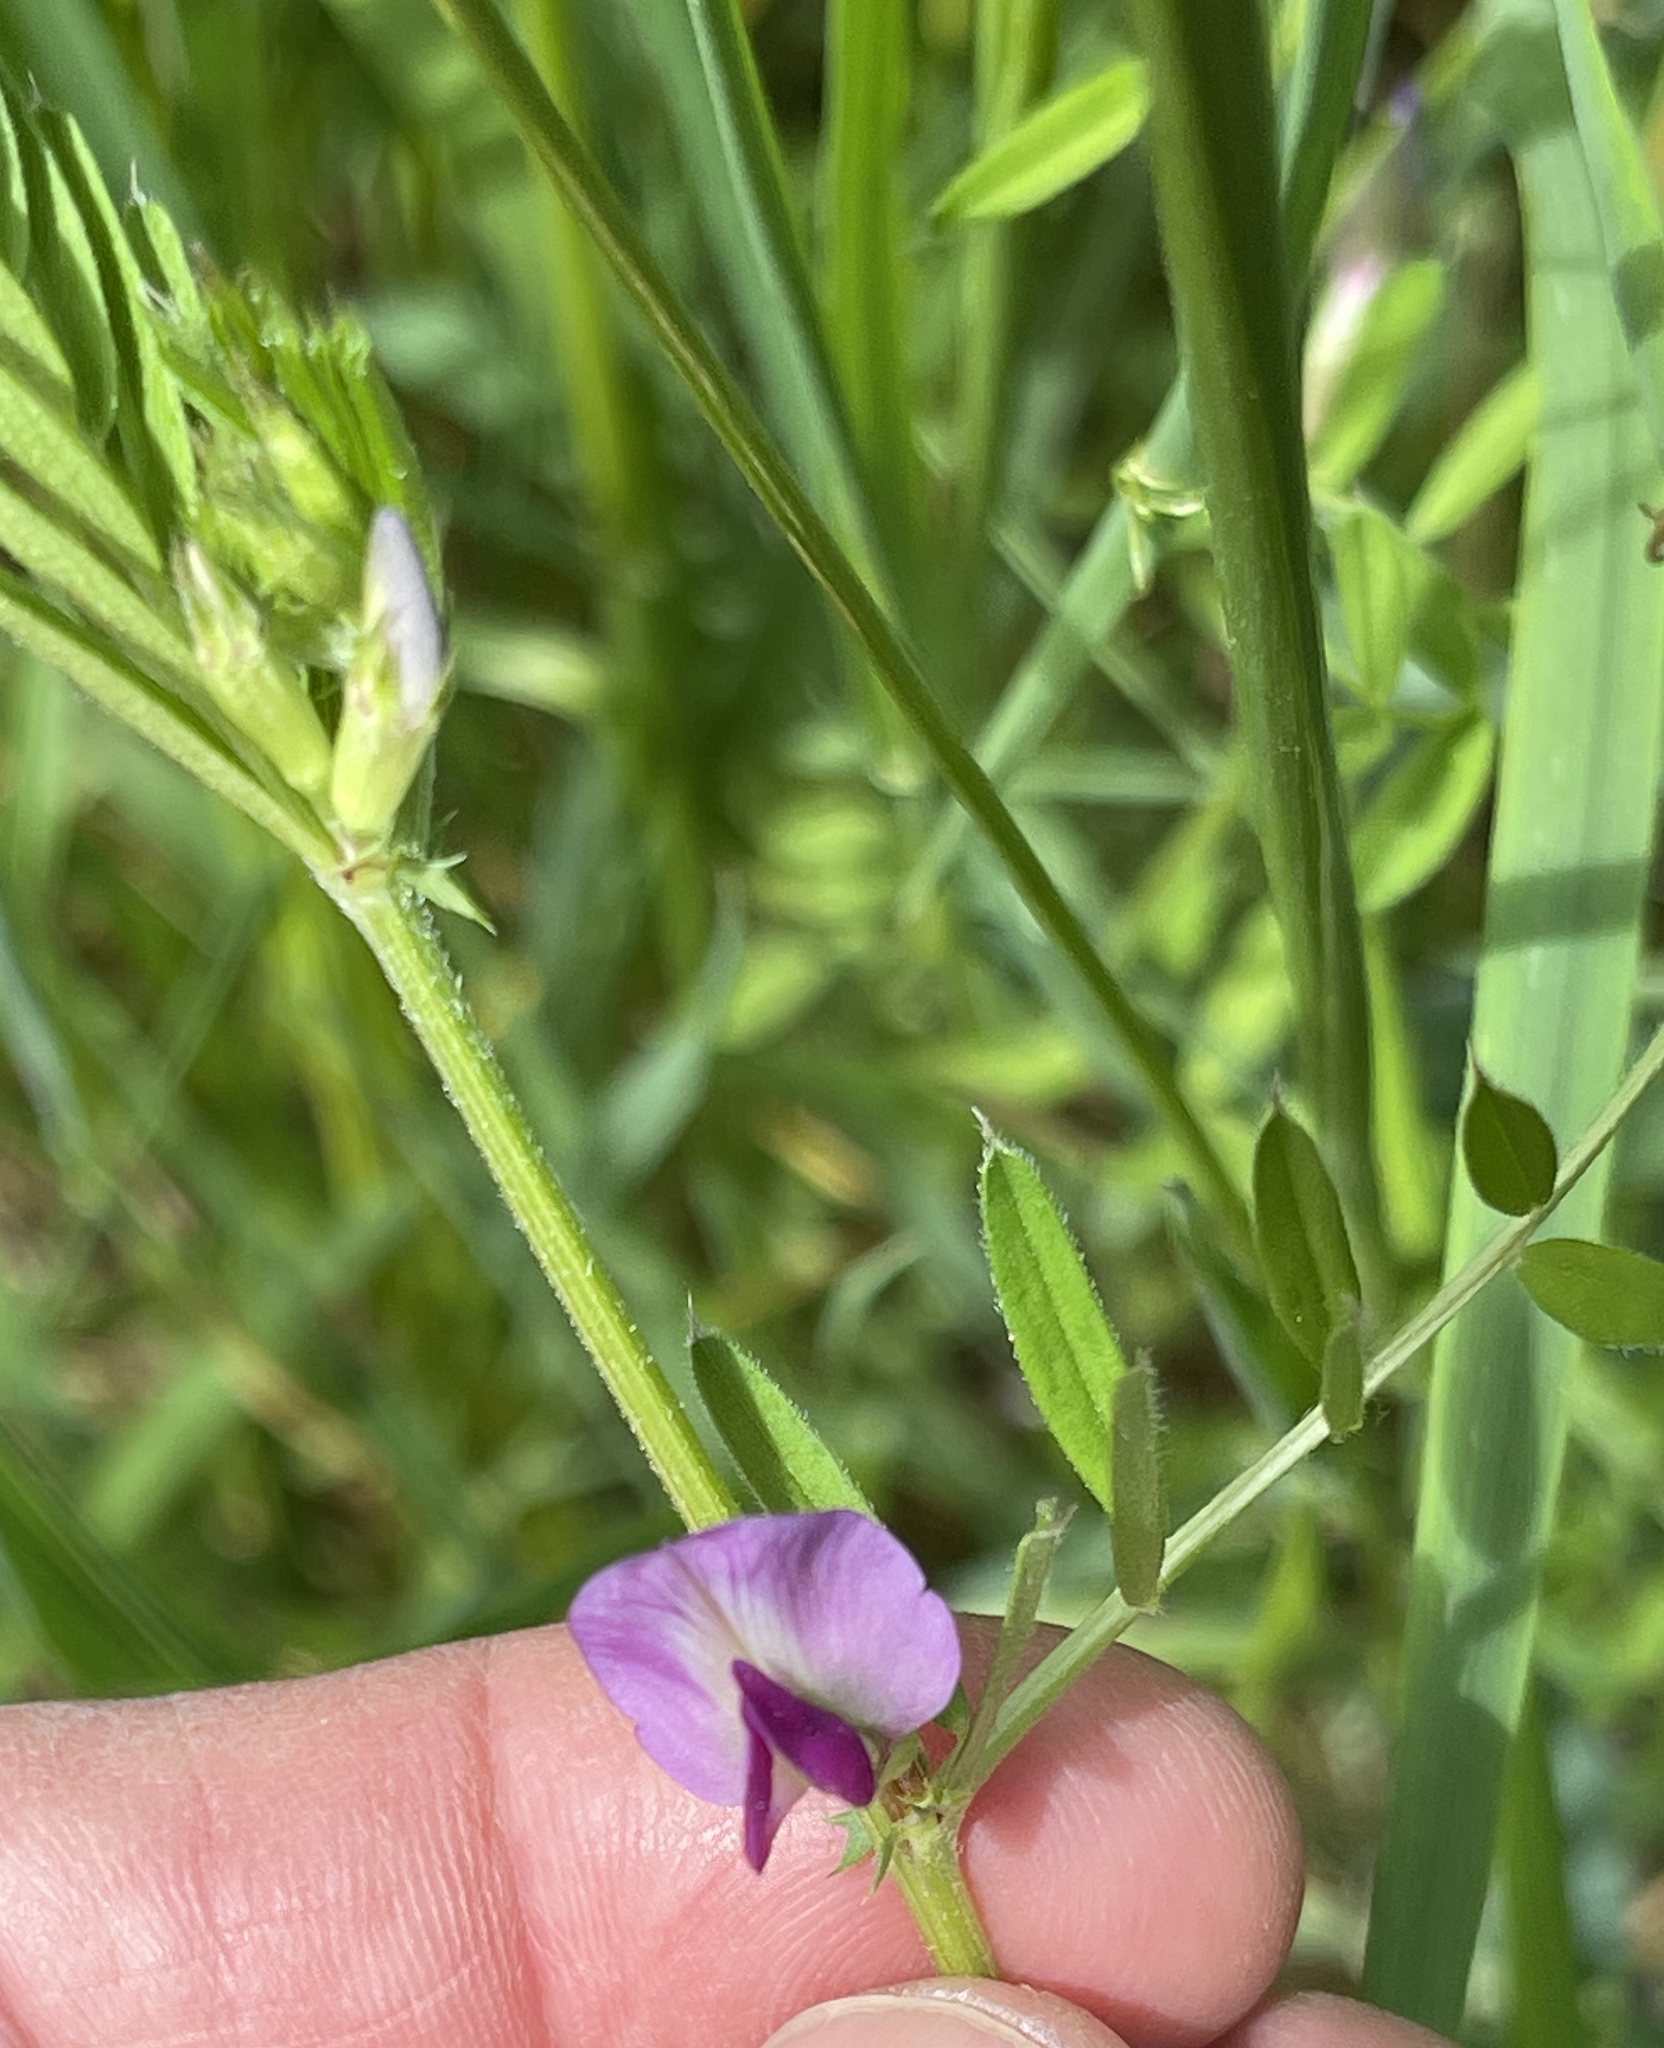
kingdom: Plantae
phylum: Tracheophyta
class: Magnoliopsida
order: Fabales
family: Fabaceae
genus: Vicia
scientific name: Vicia sativa
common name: Garden vetch
